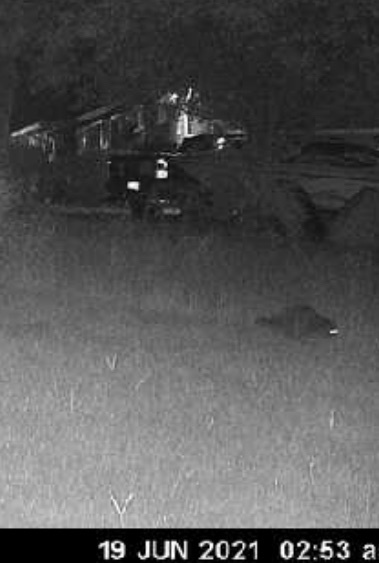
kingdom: Animalia
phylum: Chordata
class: Mammalia
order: Carnivora
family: Procyonidae
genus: Procyon
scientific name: Procyon lotor
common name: Raccoon
